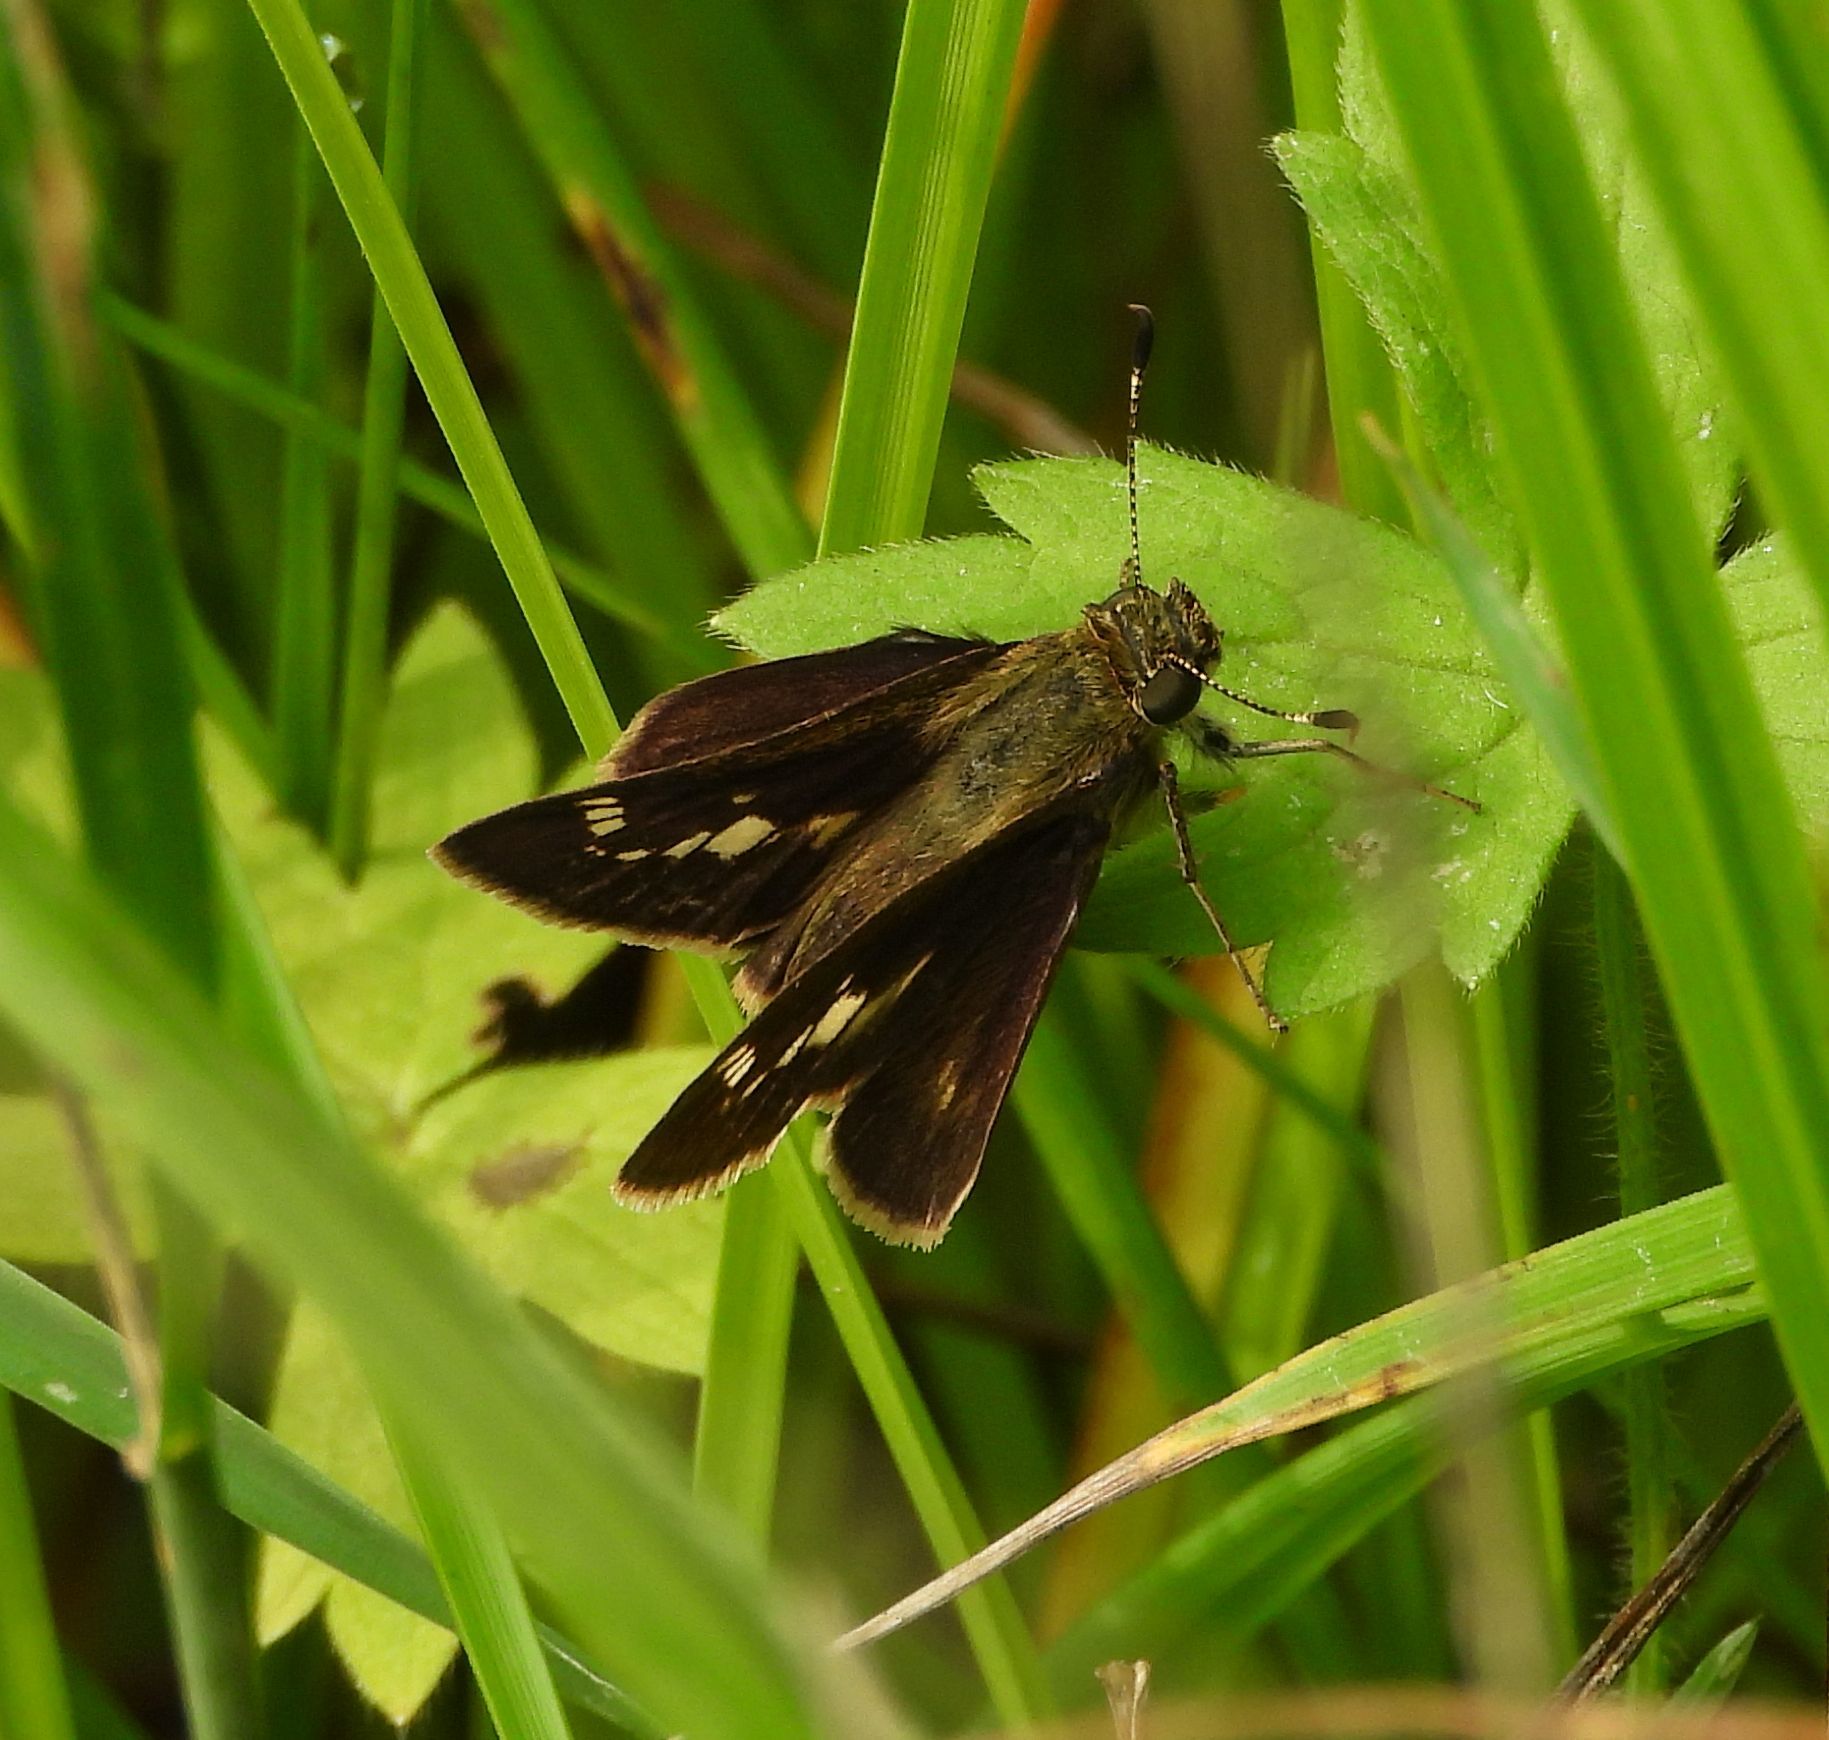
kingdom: Animalia
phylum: Arthropoda
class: Insecta
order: Lepidoptera
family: Hesperiidae
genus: Vernia
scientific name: Vernia verna
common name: Little glassywing
